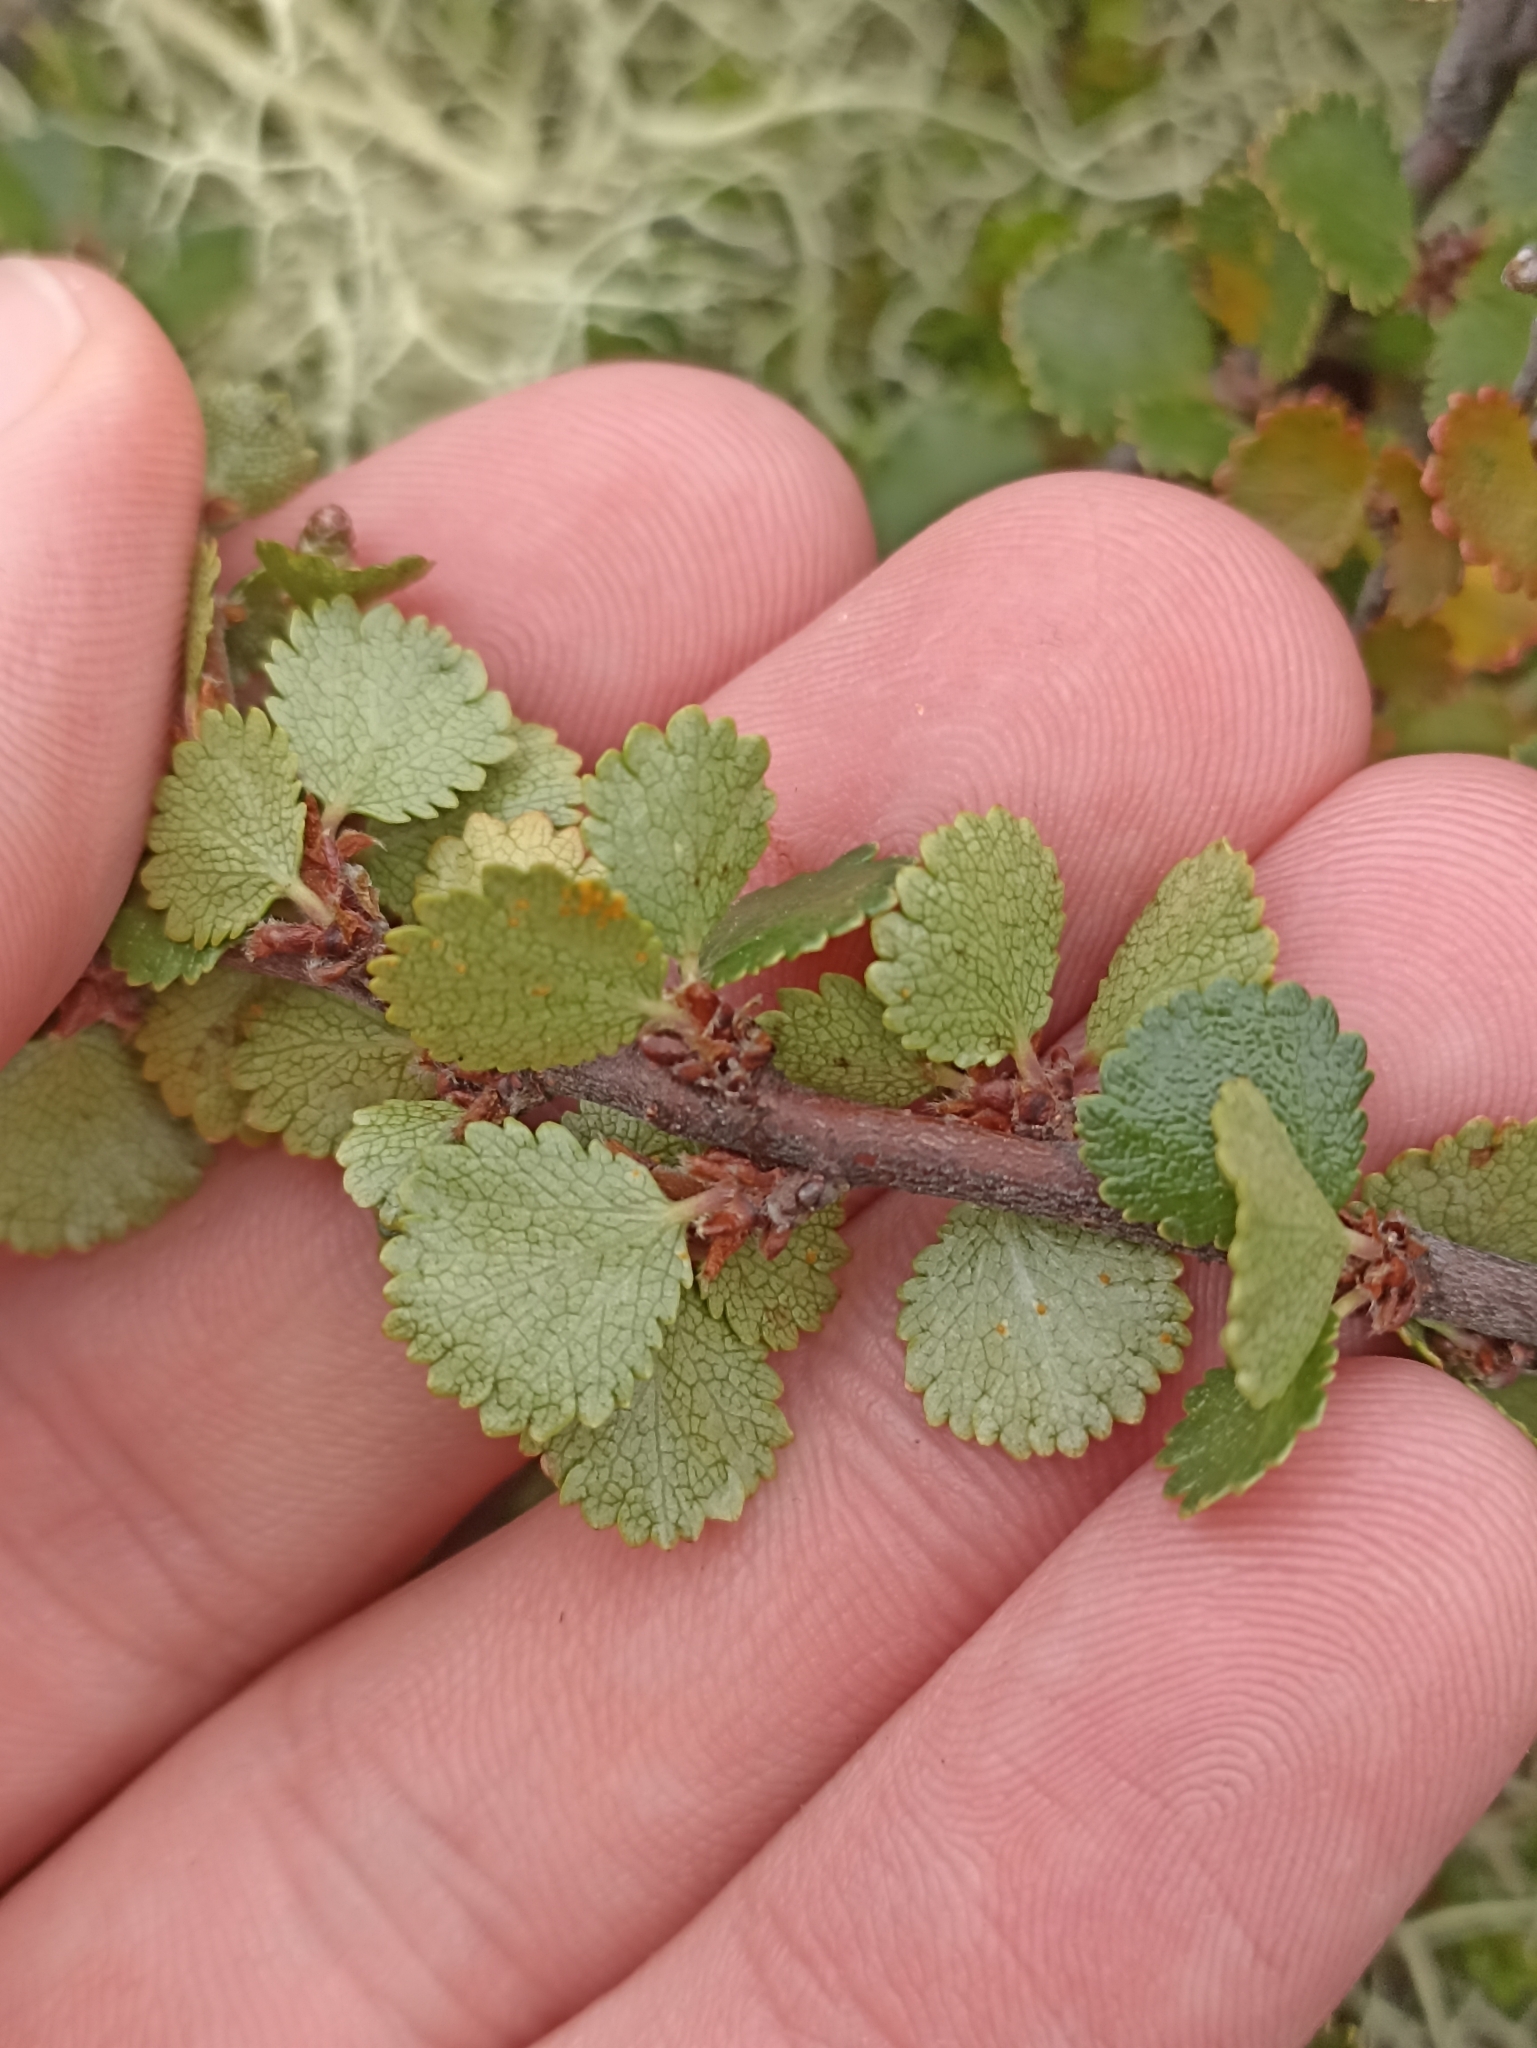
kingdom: Plantae
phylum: Tracheophyta
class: Magnoliopsida
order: Fagales
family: Betulaceae
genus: Betula
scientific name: Betula nana
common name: Arctic dwarf birch
